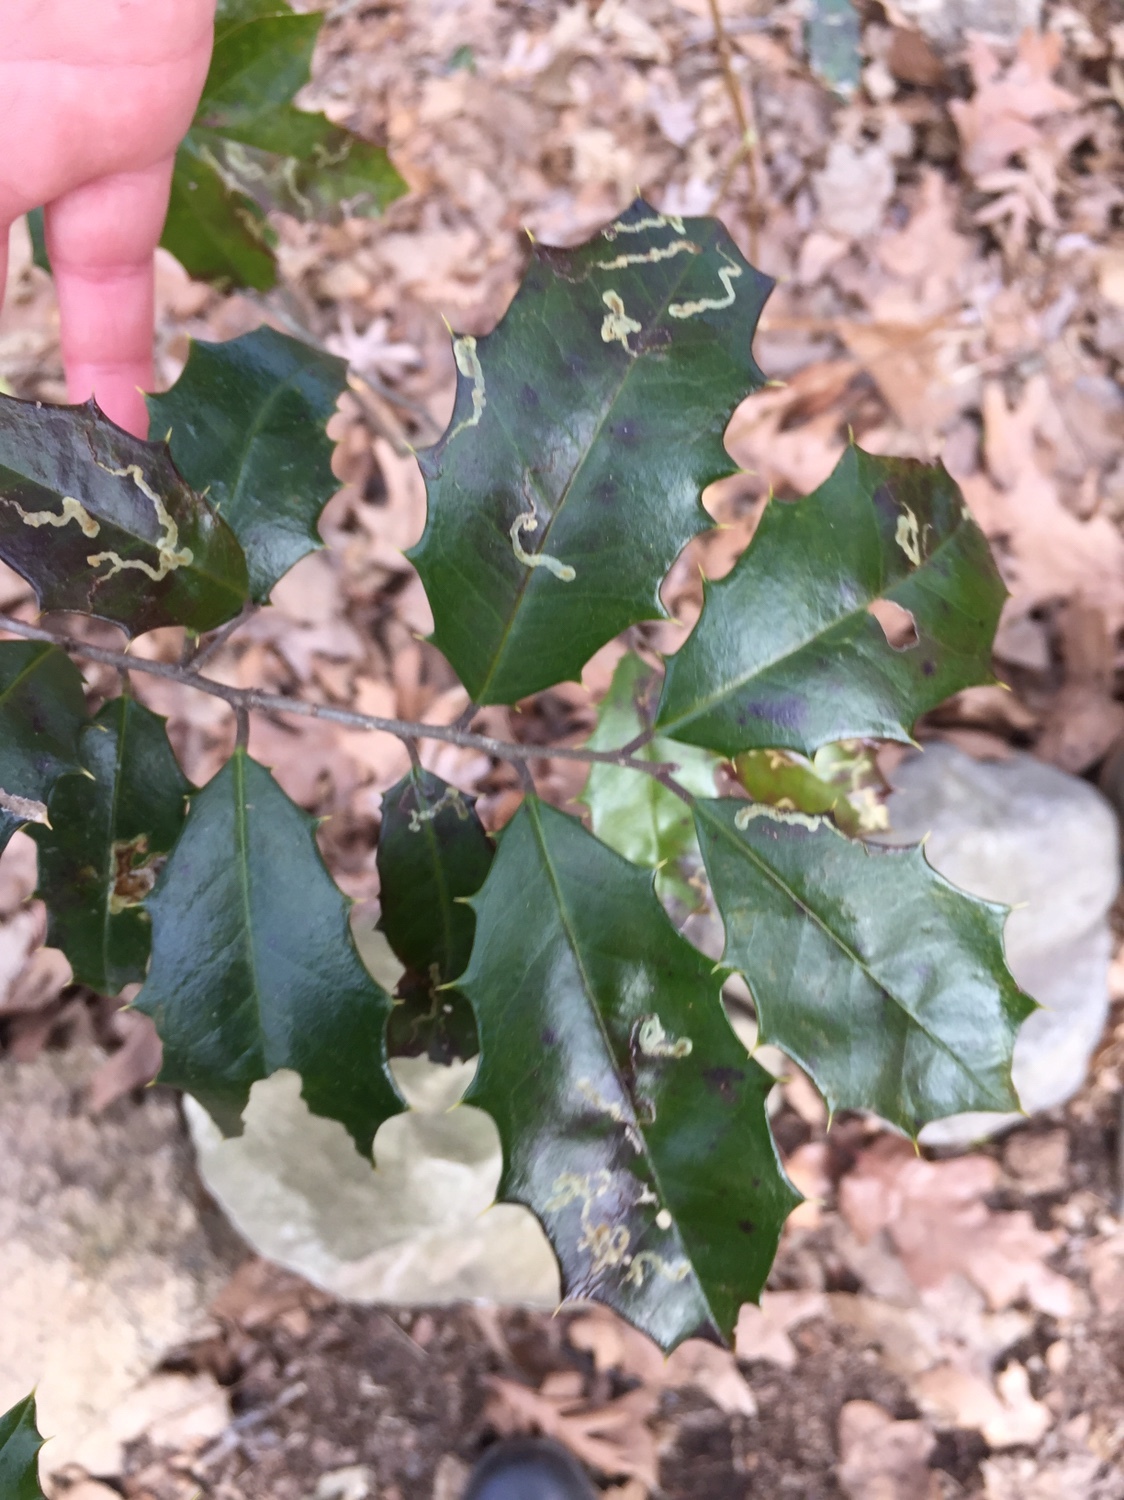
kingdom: Animalia
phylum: Arthropoda
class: Insecta
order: Diptera
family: Agromyzidae
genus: Phytomyza
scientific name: Phytomyza ilicicola
